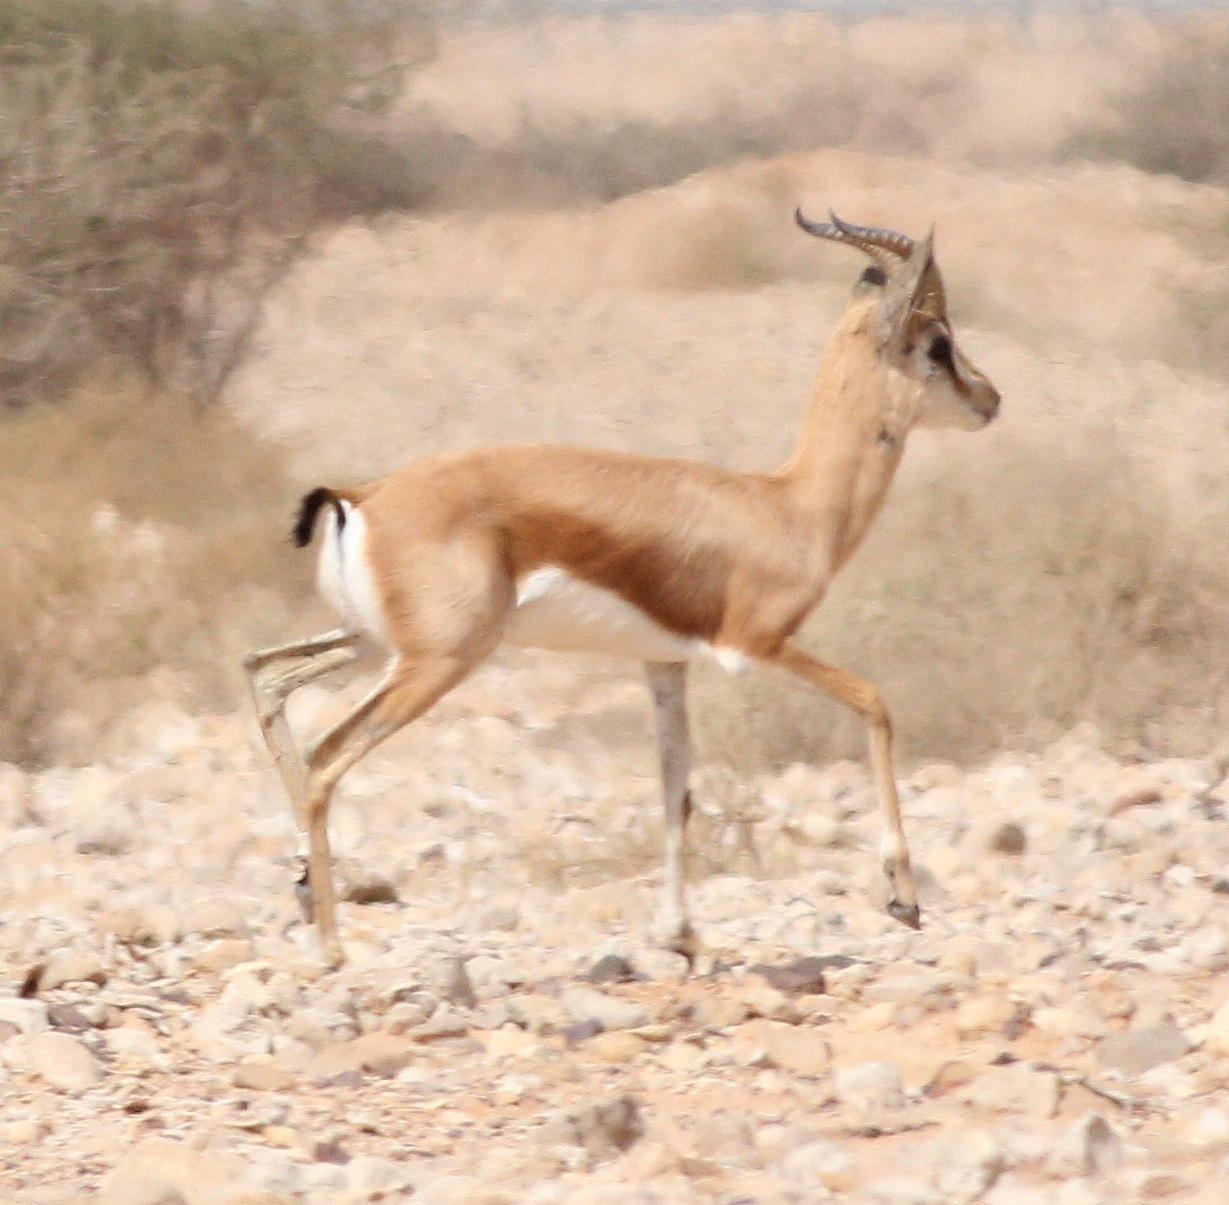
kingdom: Animalia
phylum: Chordata
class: Mammalia
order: Artiodactyla
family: Bovidae
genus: Gazella
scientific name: Gazella dorcas
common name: Dorcas gazelle
